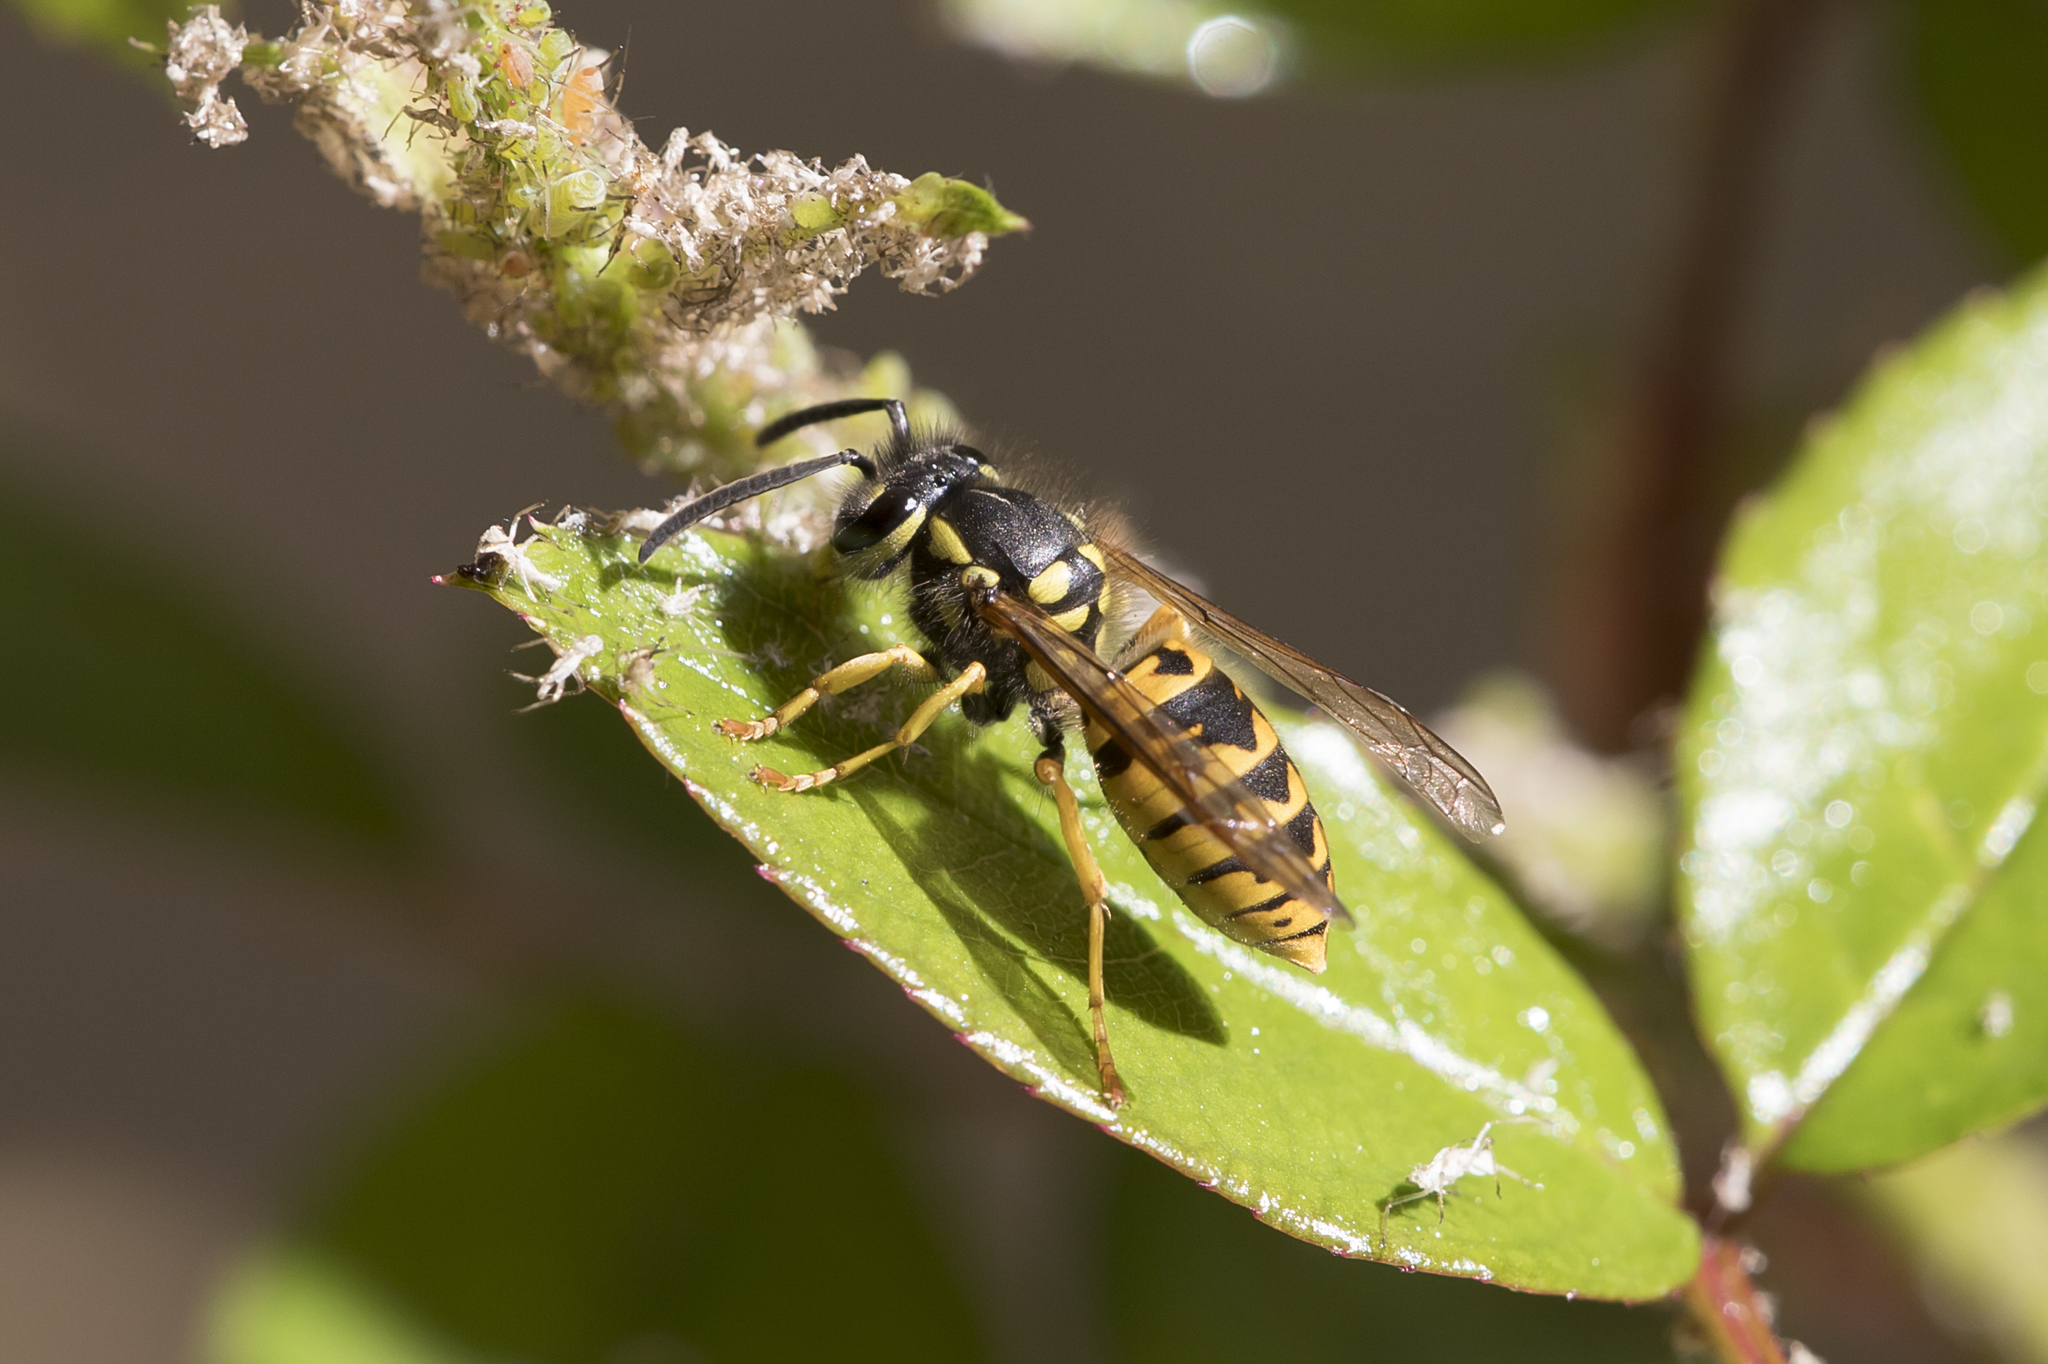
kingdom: Animalia
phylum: Arthropoda
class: Insecta
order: Hymenoptera
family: Vespidae
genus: Vespula
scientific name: Vespula germanica
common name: German wasp
